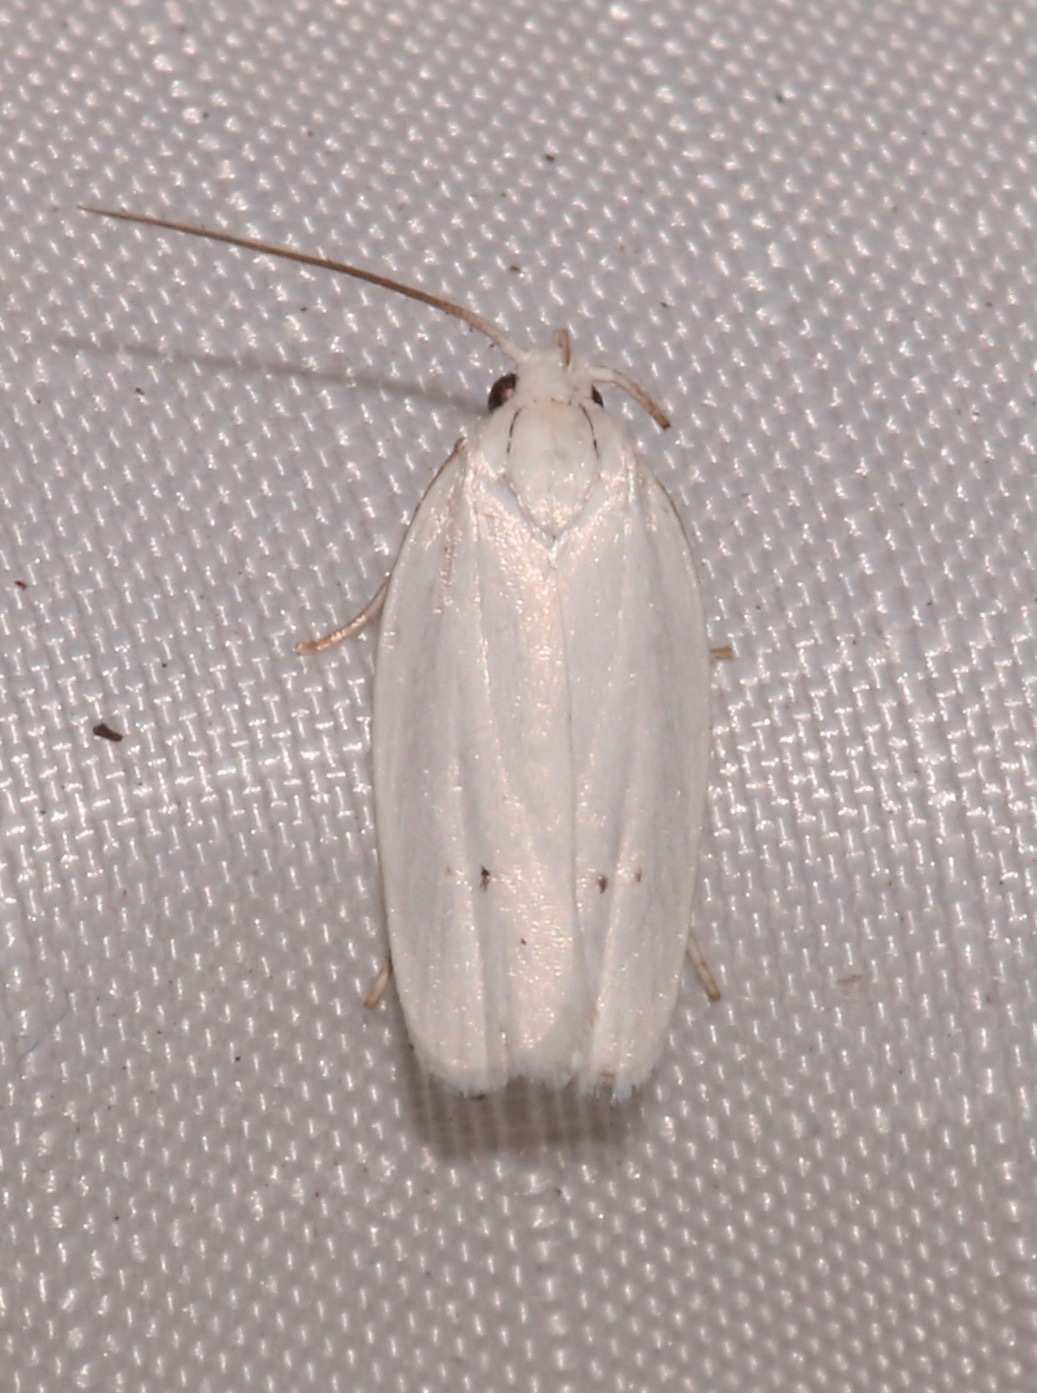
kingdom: Animalia
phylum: Arthropoda
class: Insecta
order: Lepidoptera
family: Depressariidae
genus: Antaeotricha
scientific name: Antaeotricha albulella
